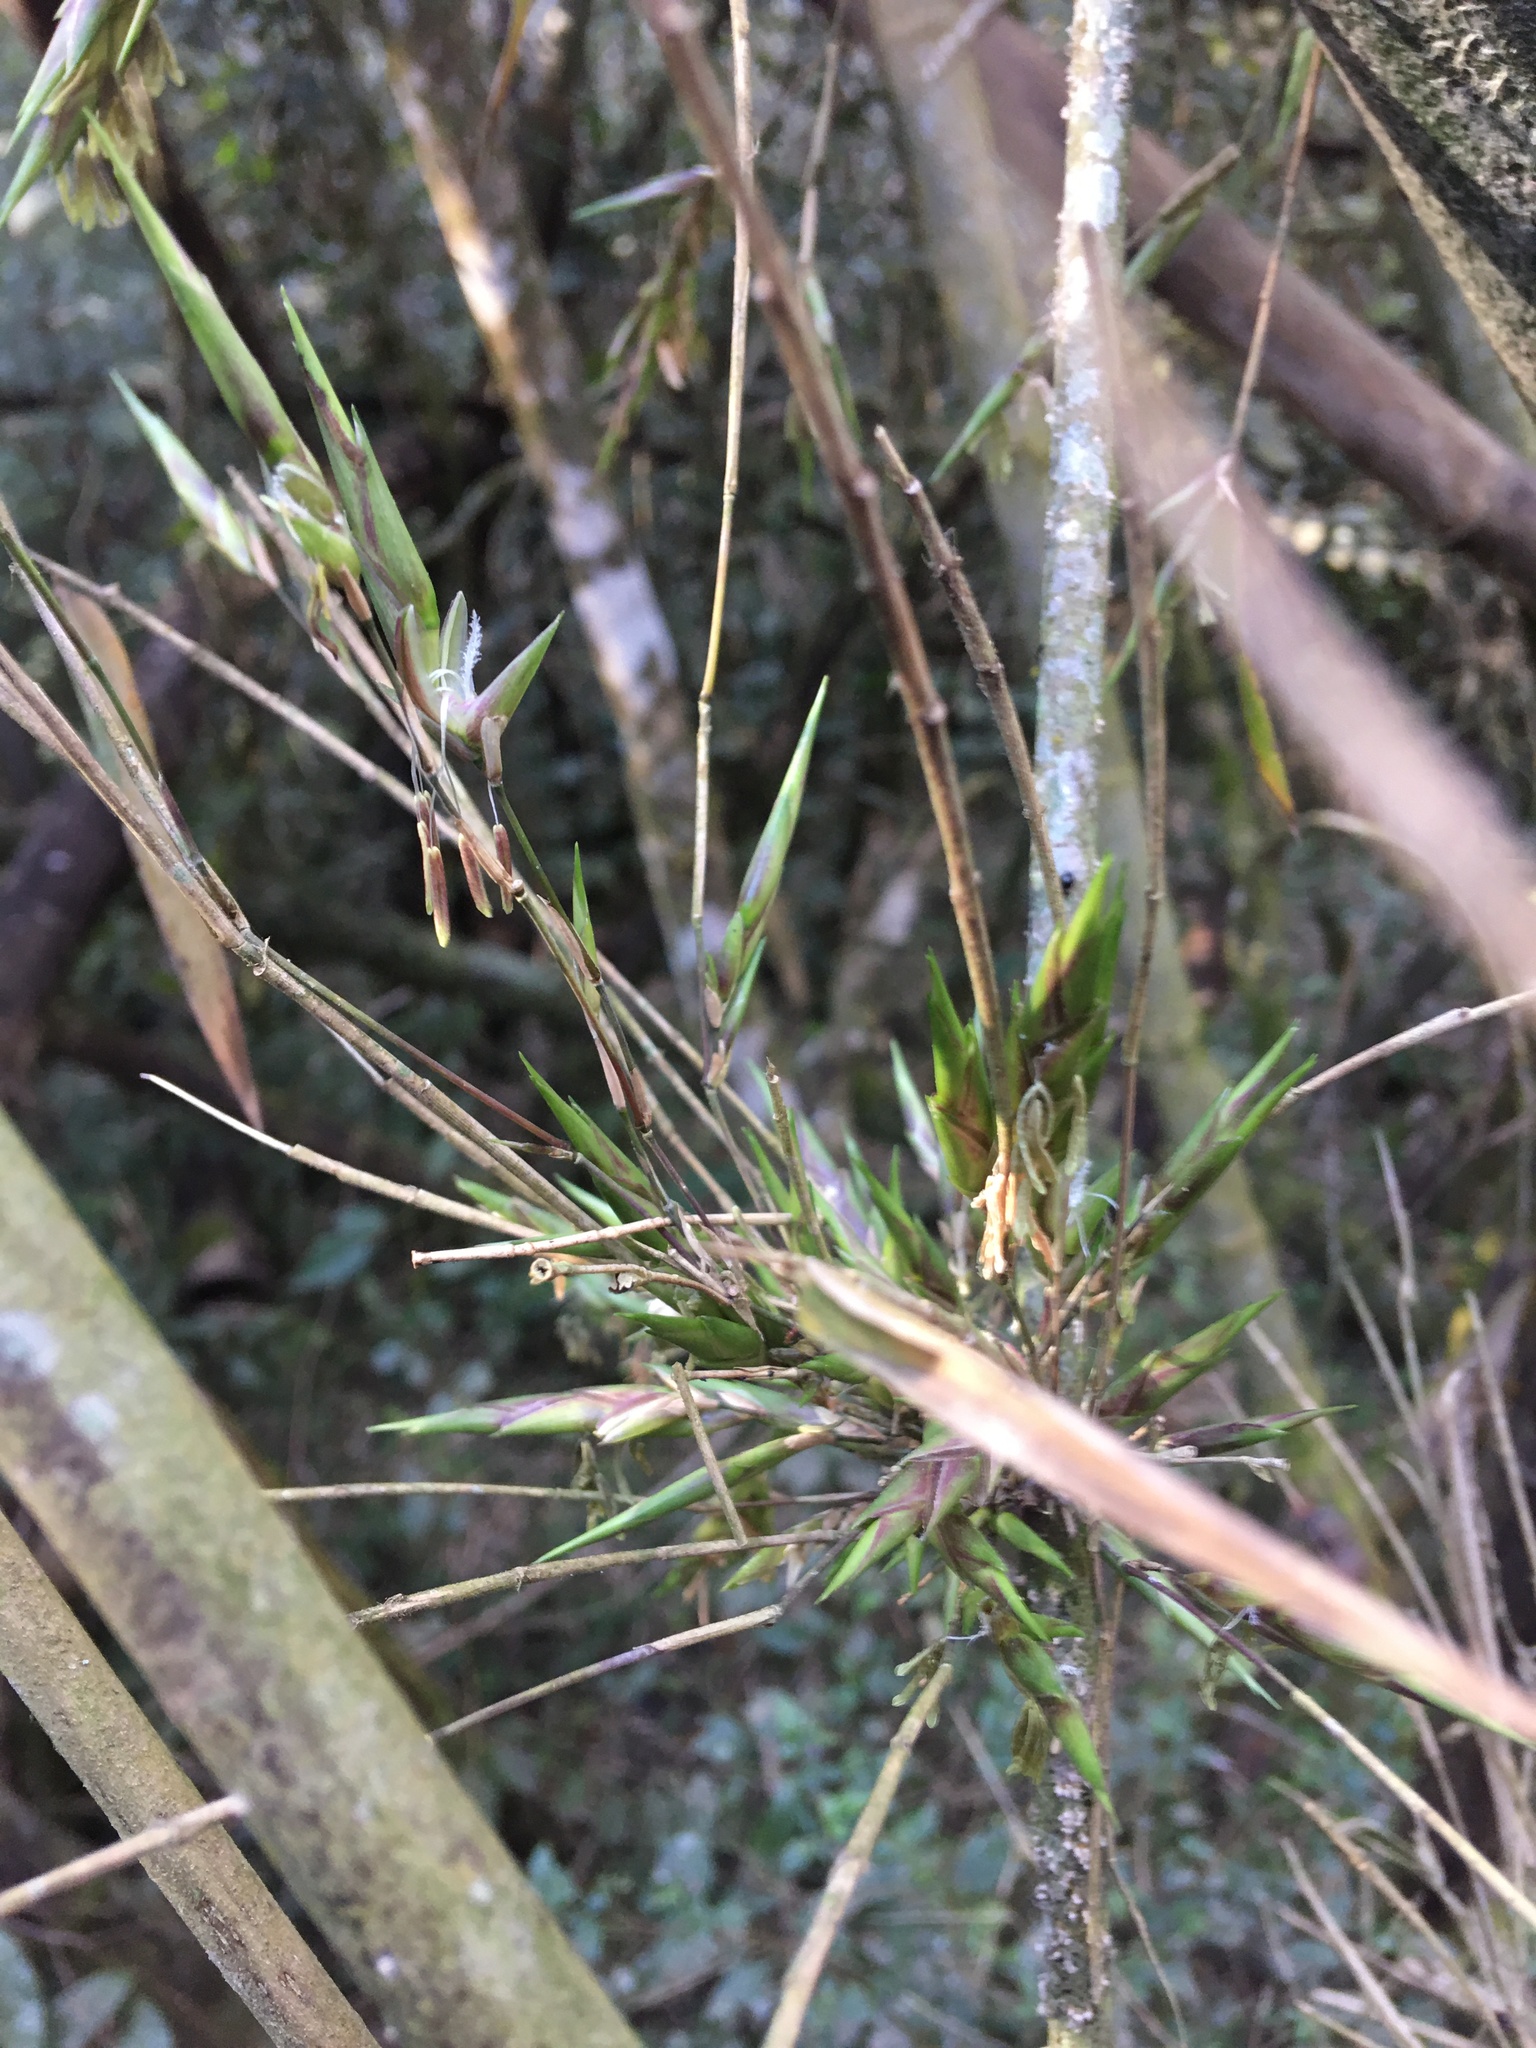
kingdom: Plantae
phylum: Tracheophyta
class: Liliopsida
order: Poales
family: Poaceae
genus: Guadua
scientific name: Guadua trinii
